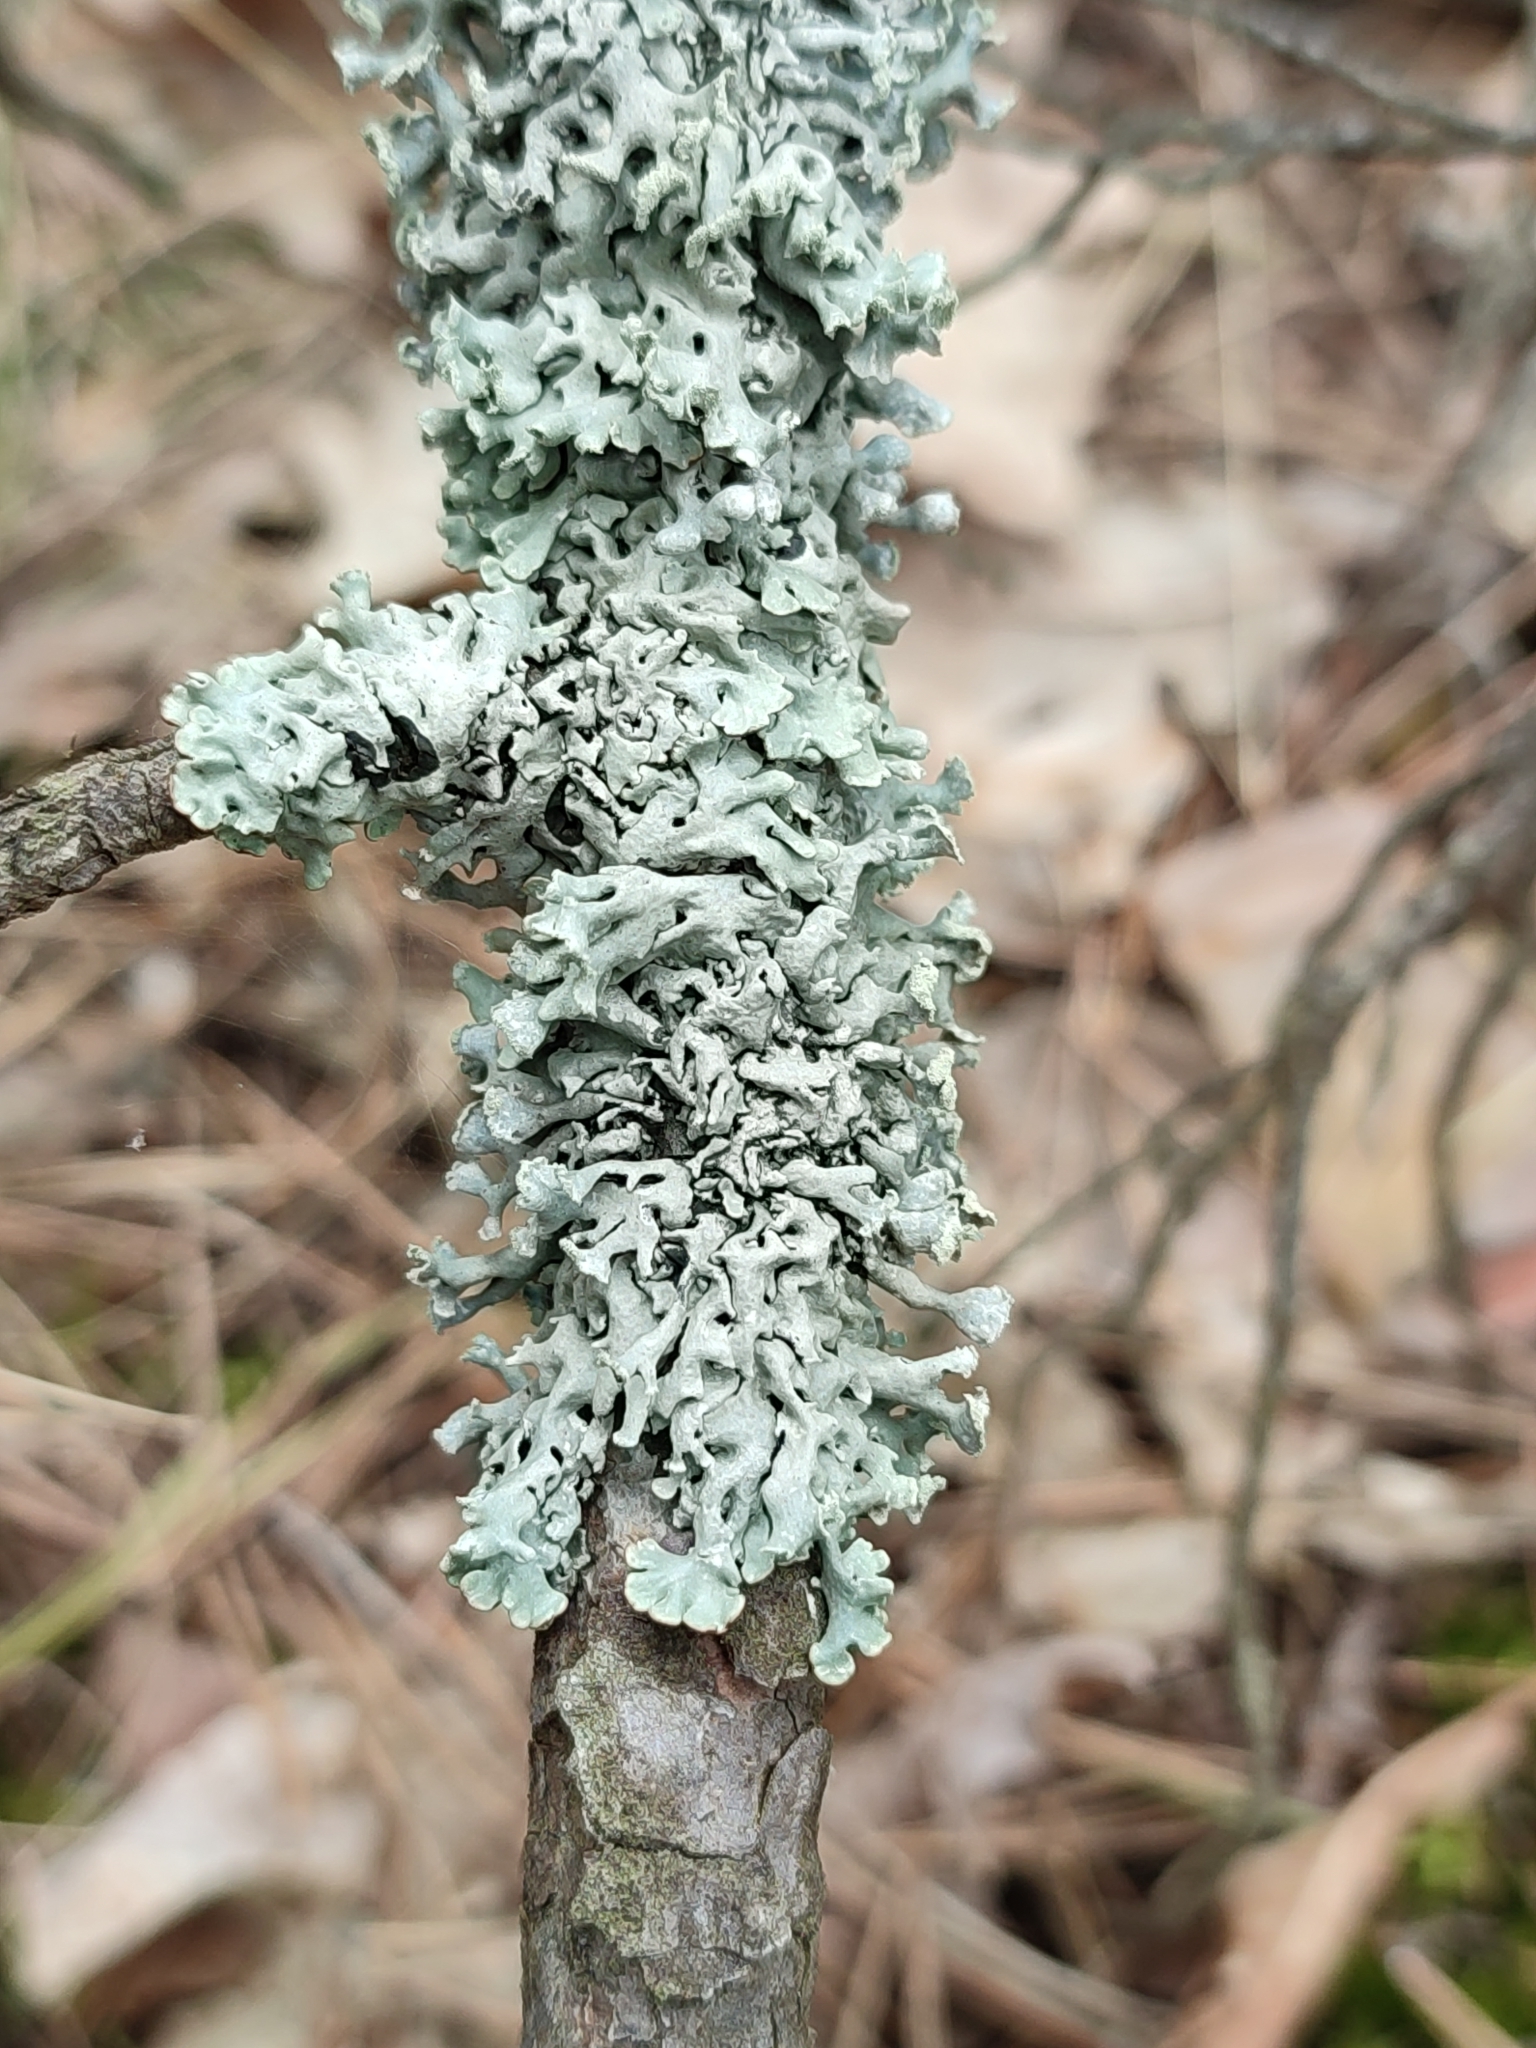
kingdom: Fungi
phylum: Ascomycota
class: Lecanoromycetes
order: Lecanorales
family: Parmeliaceae
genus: Hypogymnia
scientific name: Hypogymnia physodes
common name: Dark crottle
